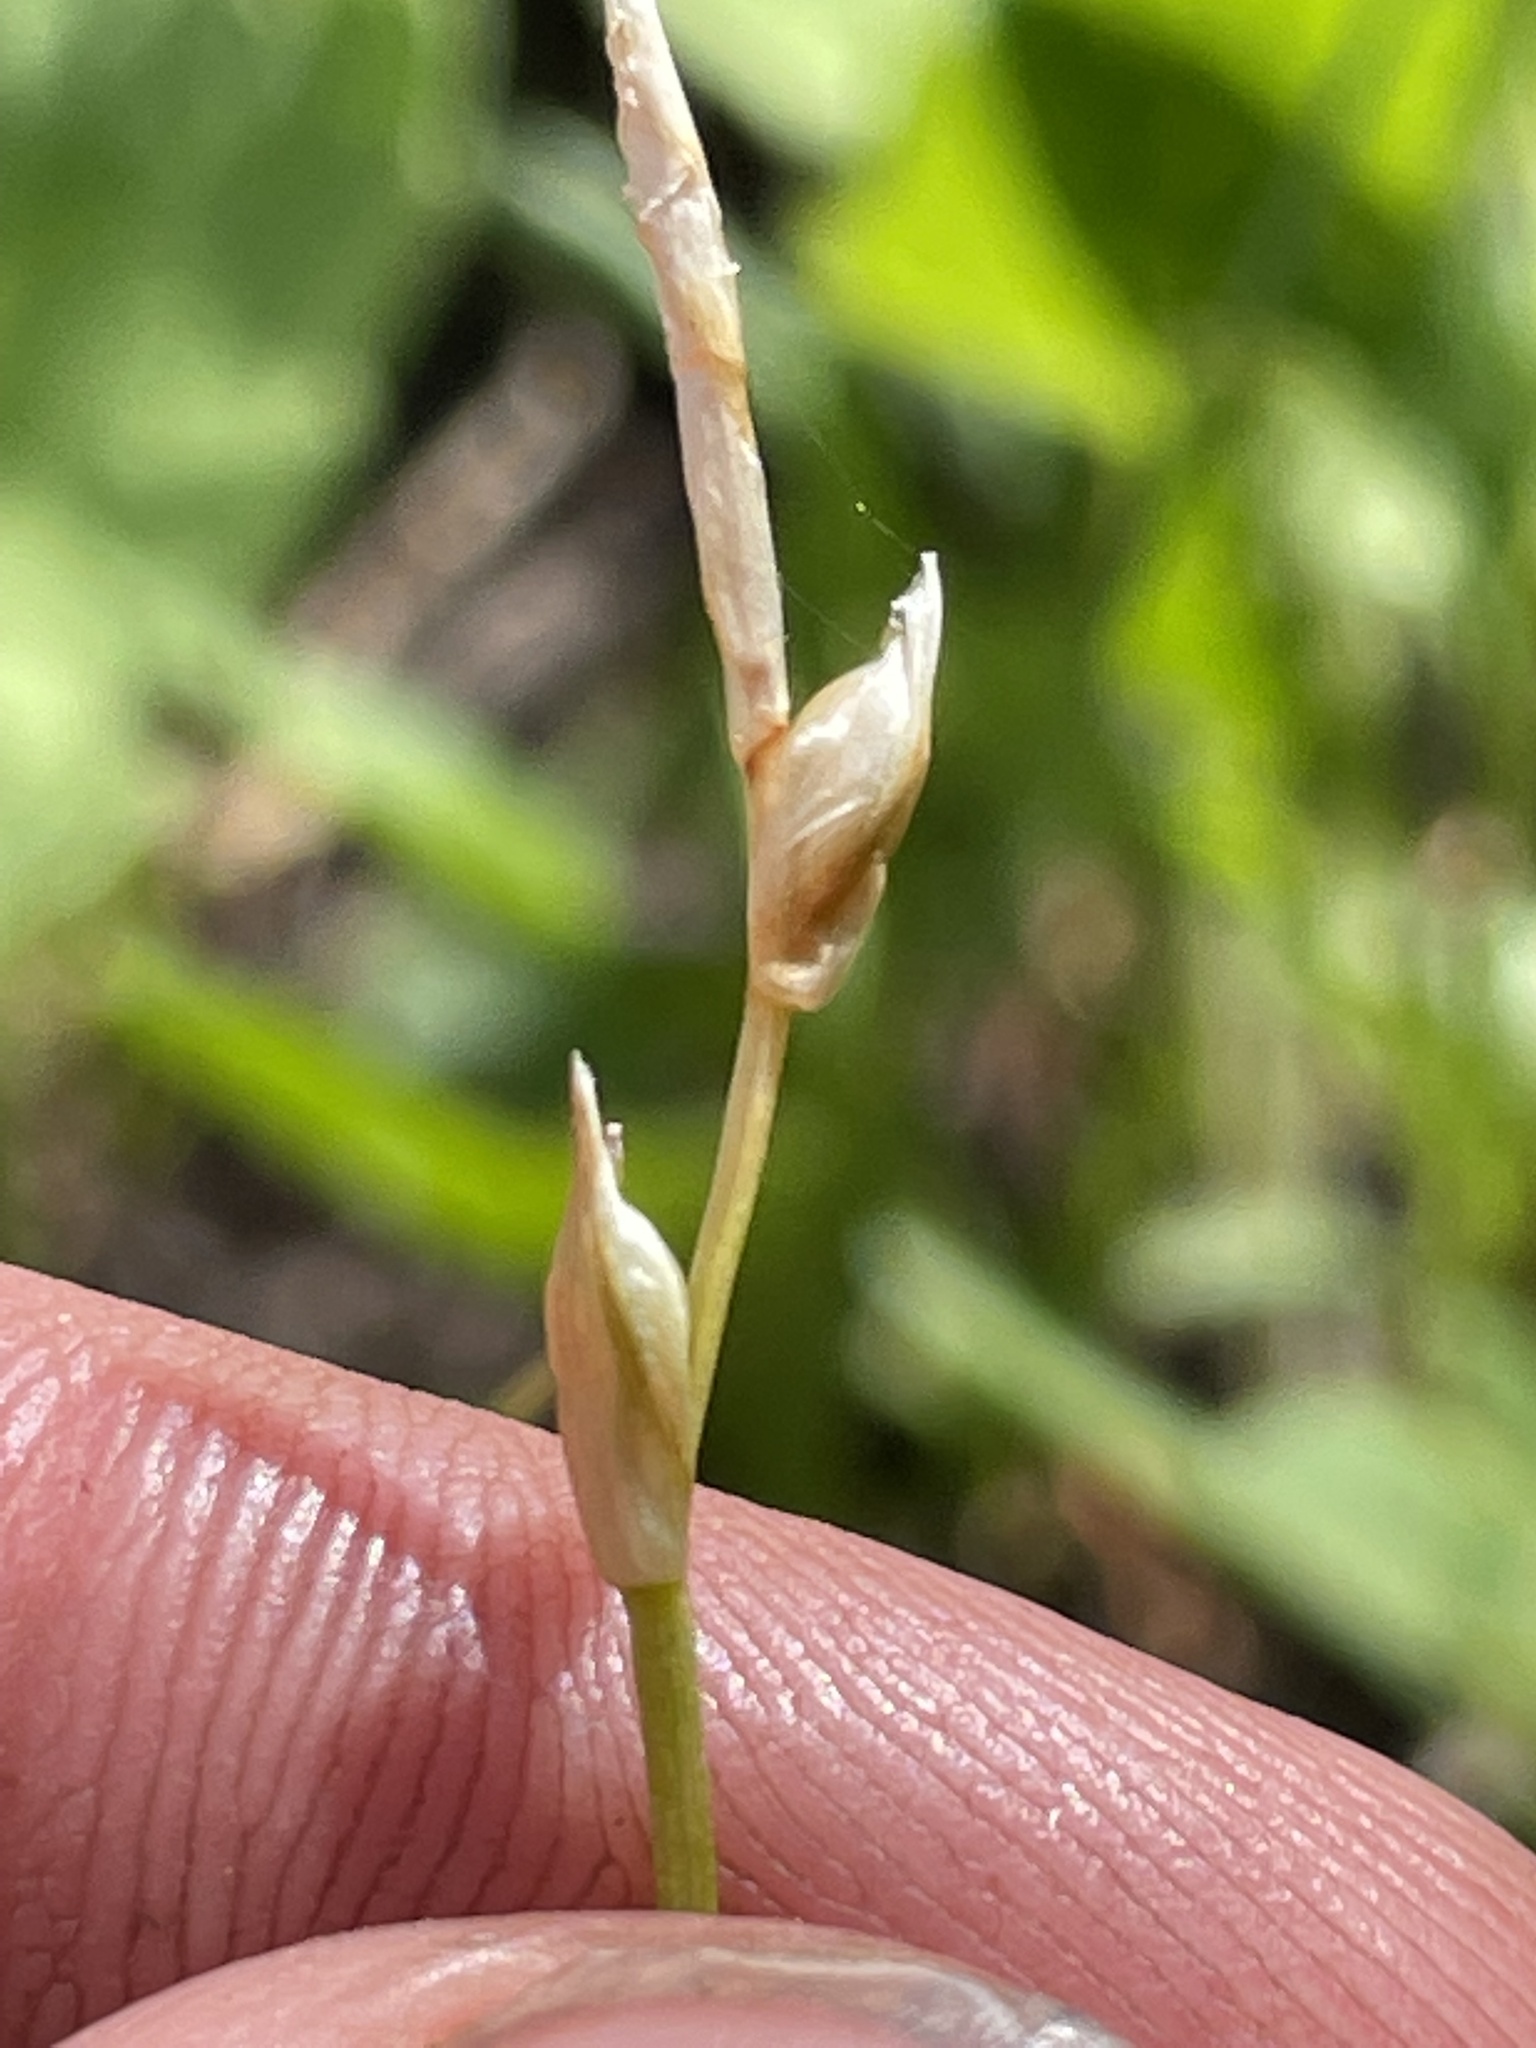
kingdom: Plantae
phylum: Tracheophyta
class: Liliopsida
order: Poales
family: Cyperaceae
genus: Carex
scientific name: Carex geyeri
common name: Elk sedge
